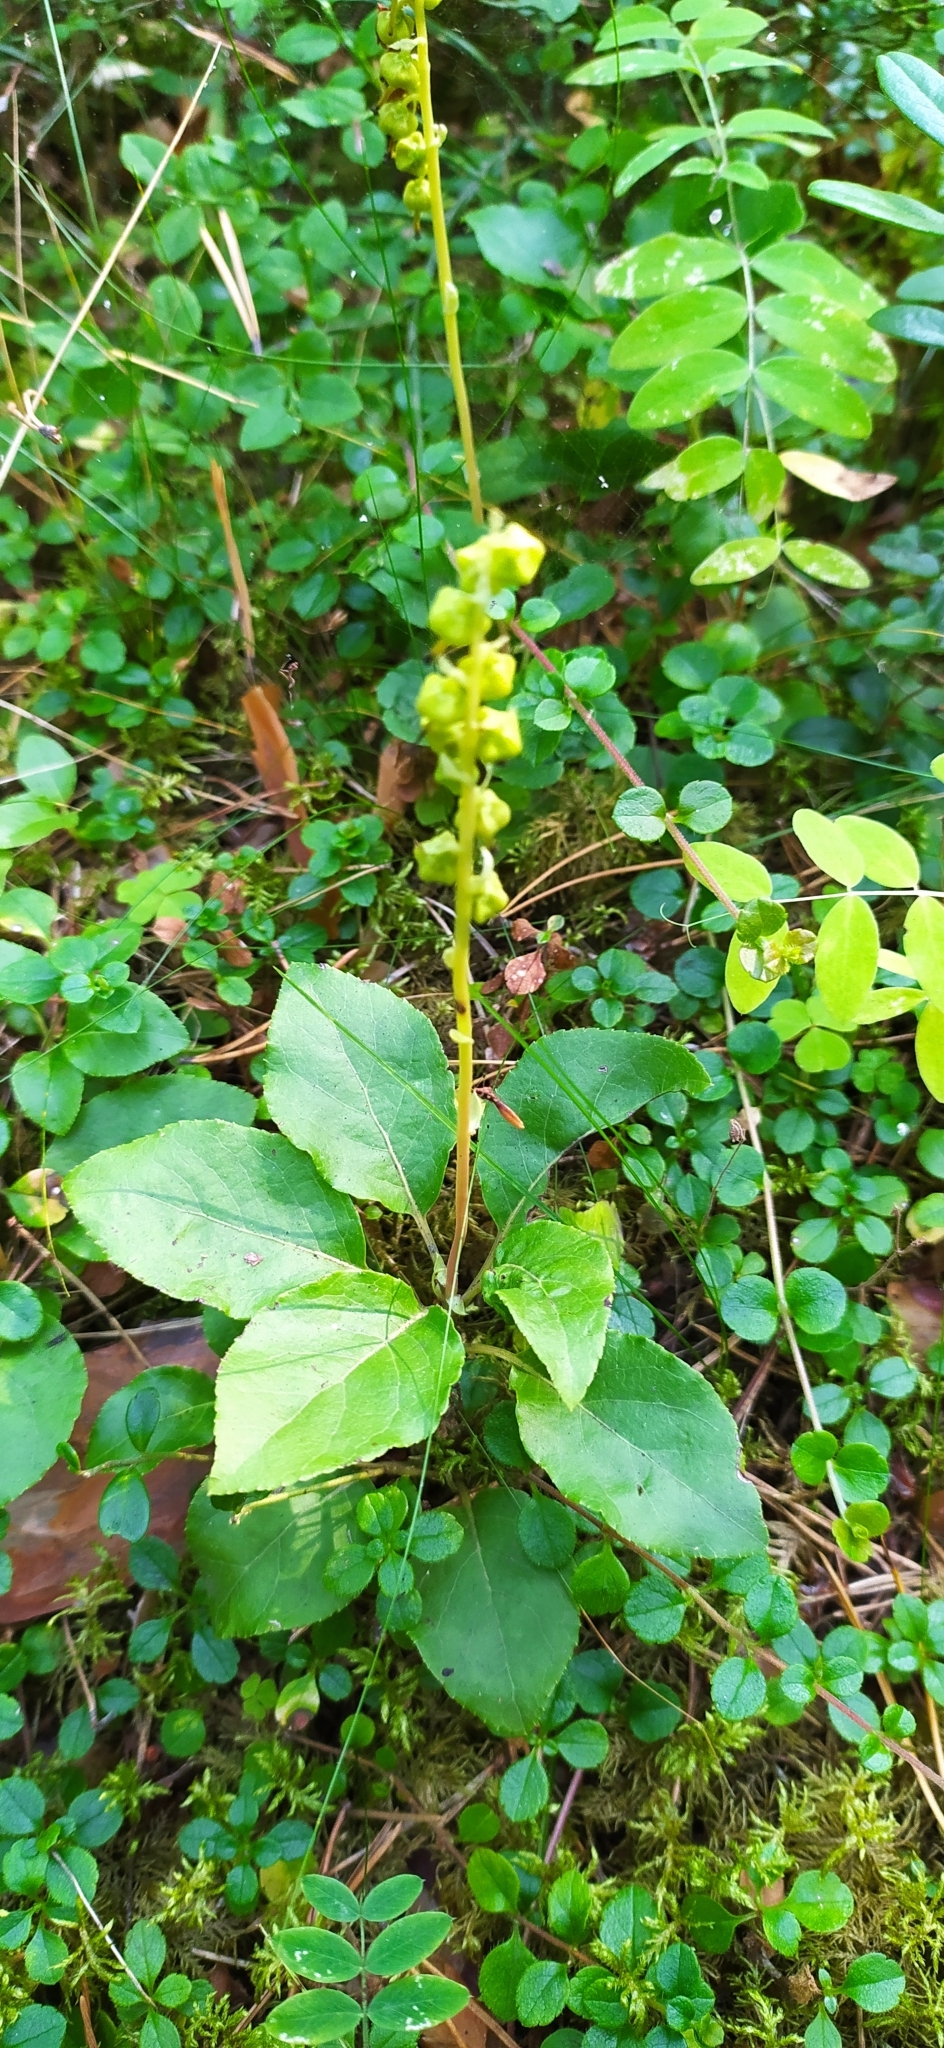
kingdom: Plantae
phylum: Tracheophyta
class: Magnoliopsida
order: Ericales
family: Ericaceae
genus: Orthilia
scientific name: Orthilia secunda
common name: One-sided orthilia
